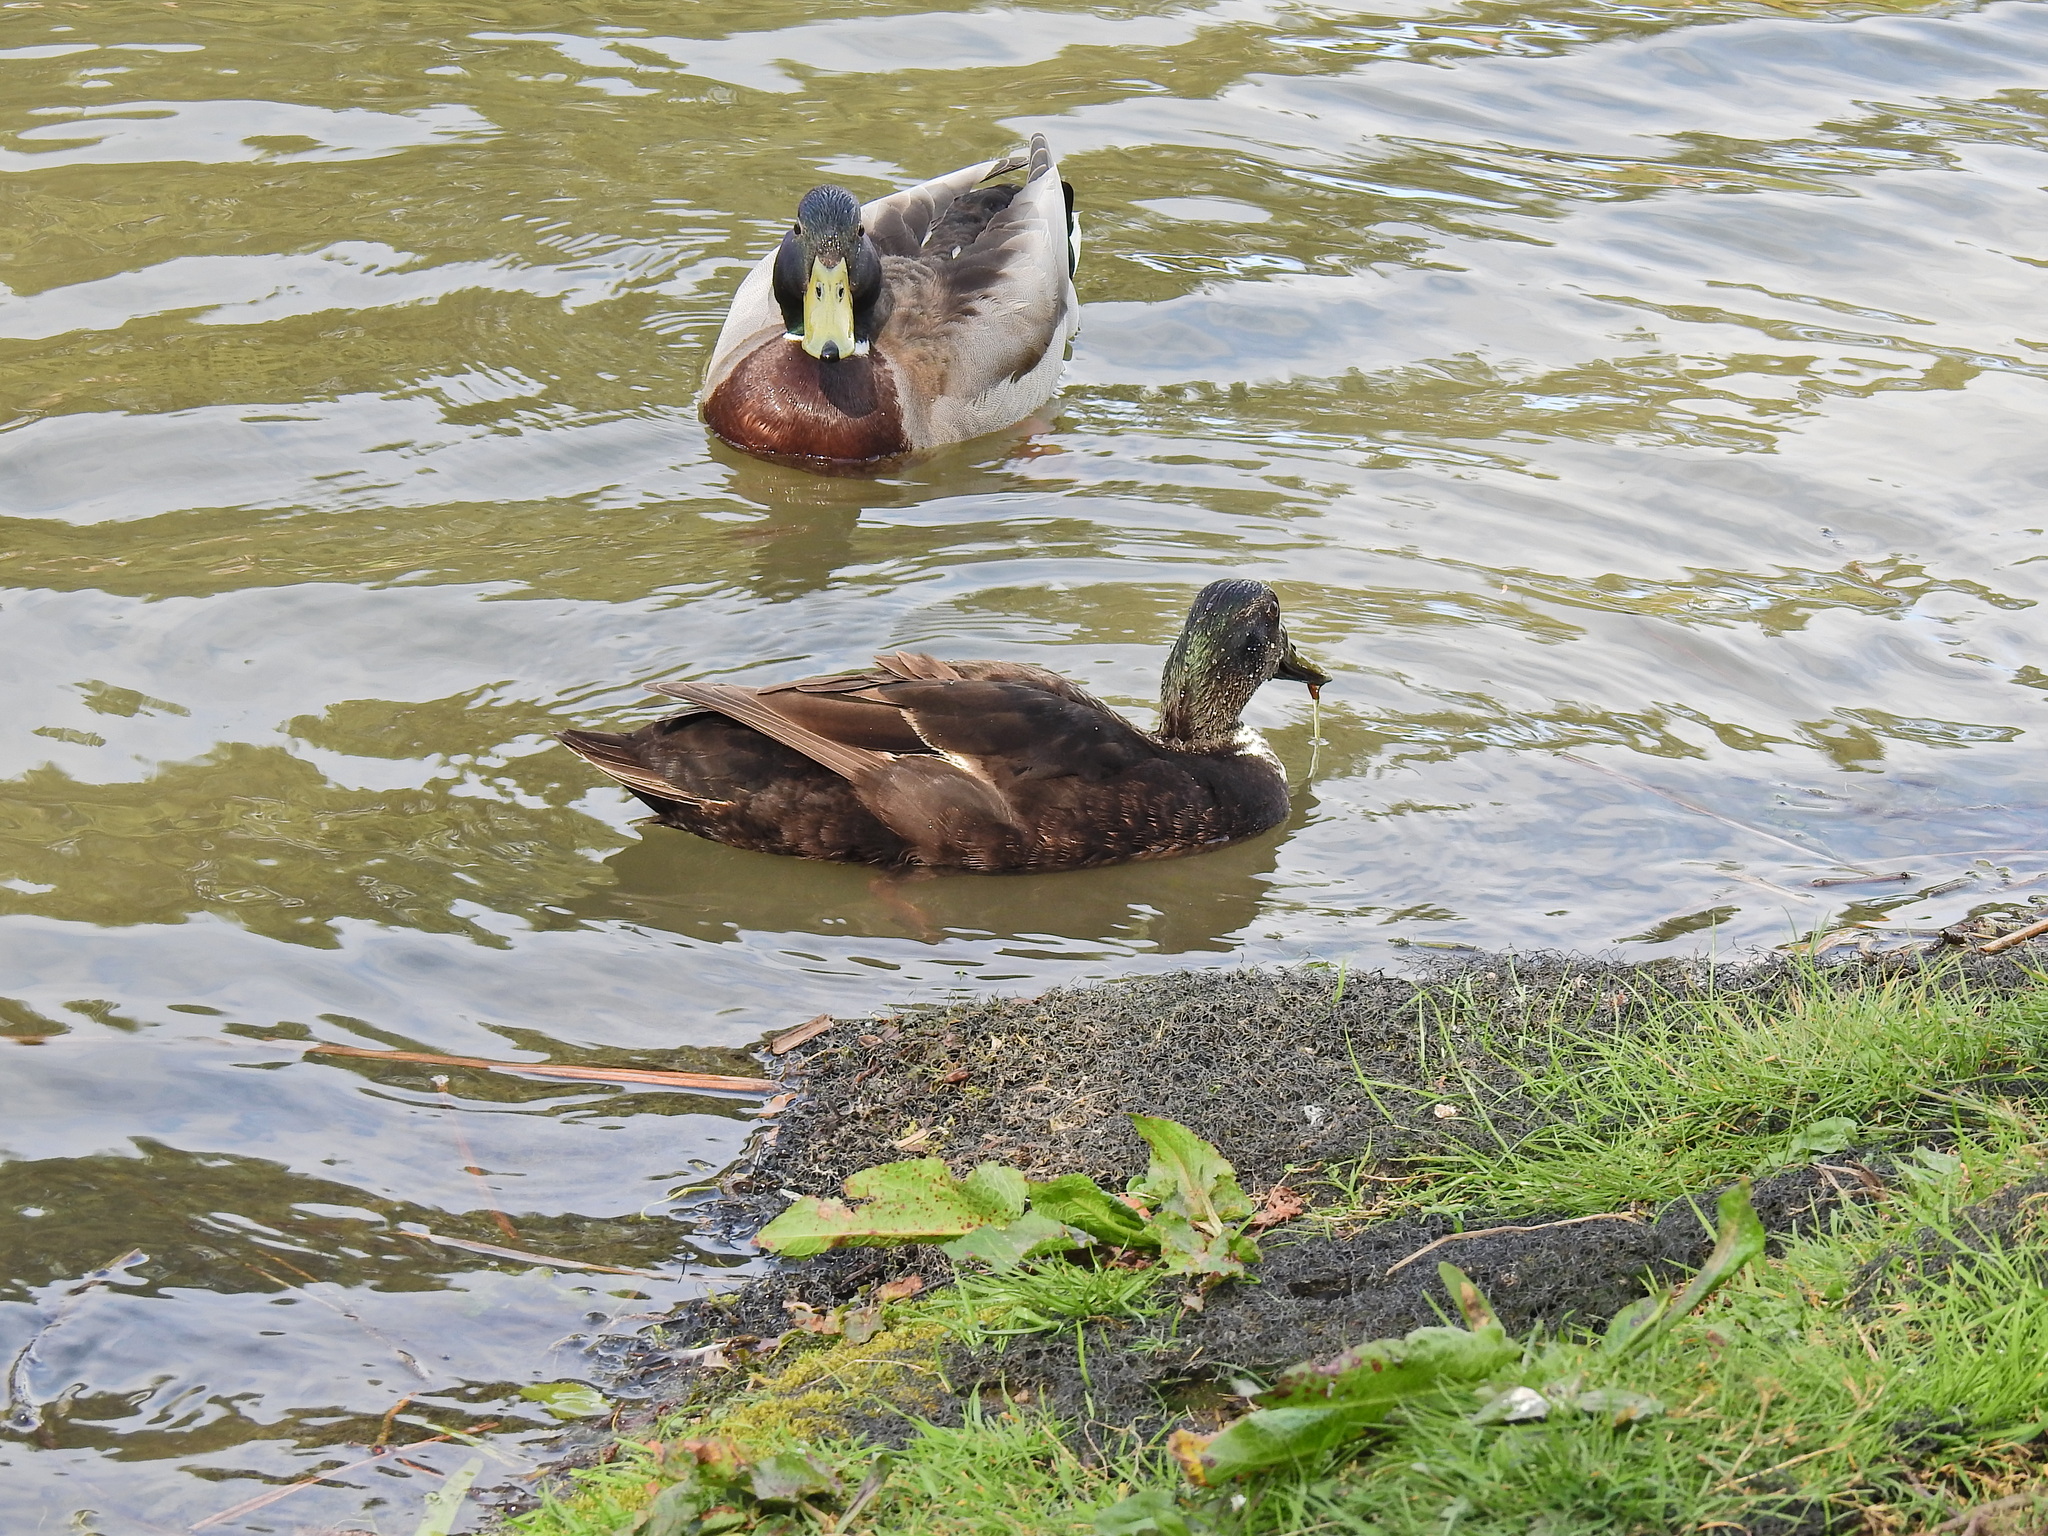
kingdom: Animalia
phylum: Chordata
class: Aves
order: Anseriformes
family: Anatidae
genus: Anas
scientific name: Anas platyrhynchos
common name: Mallard
